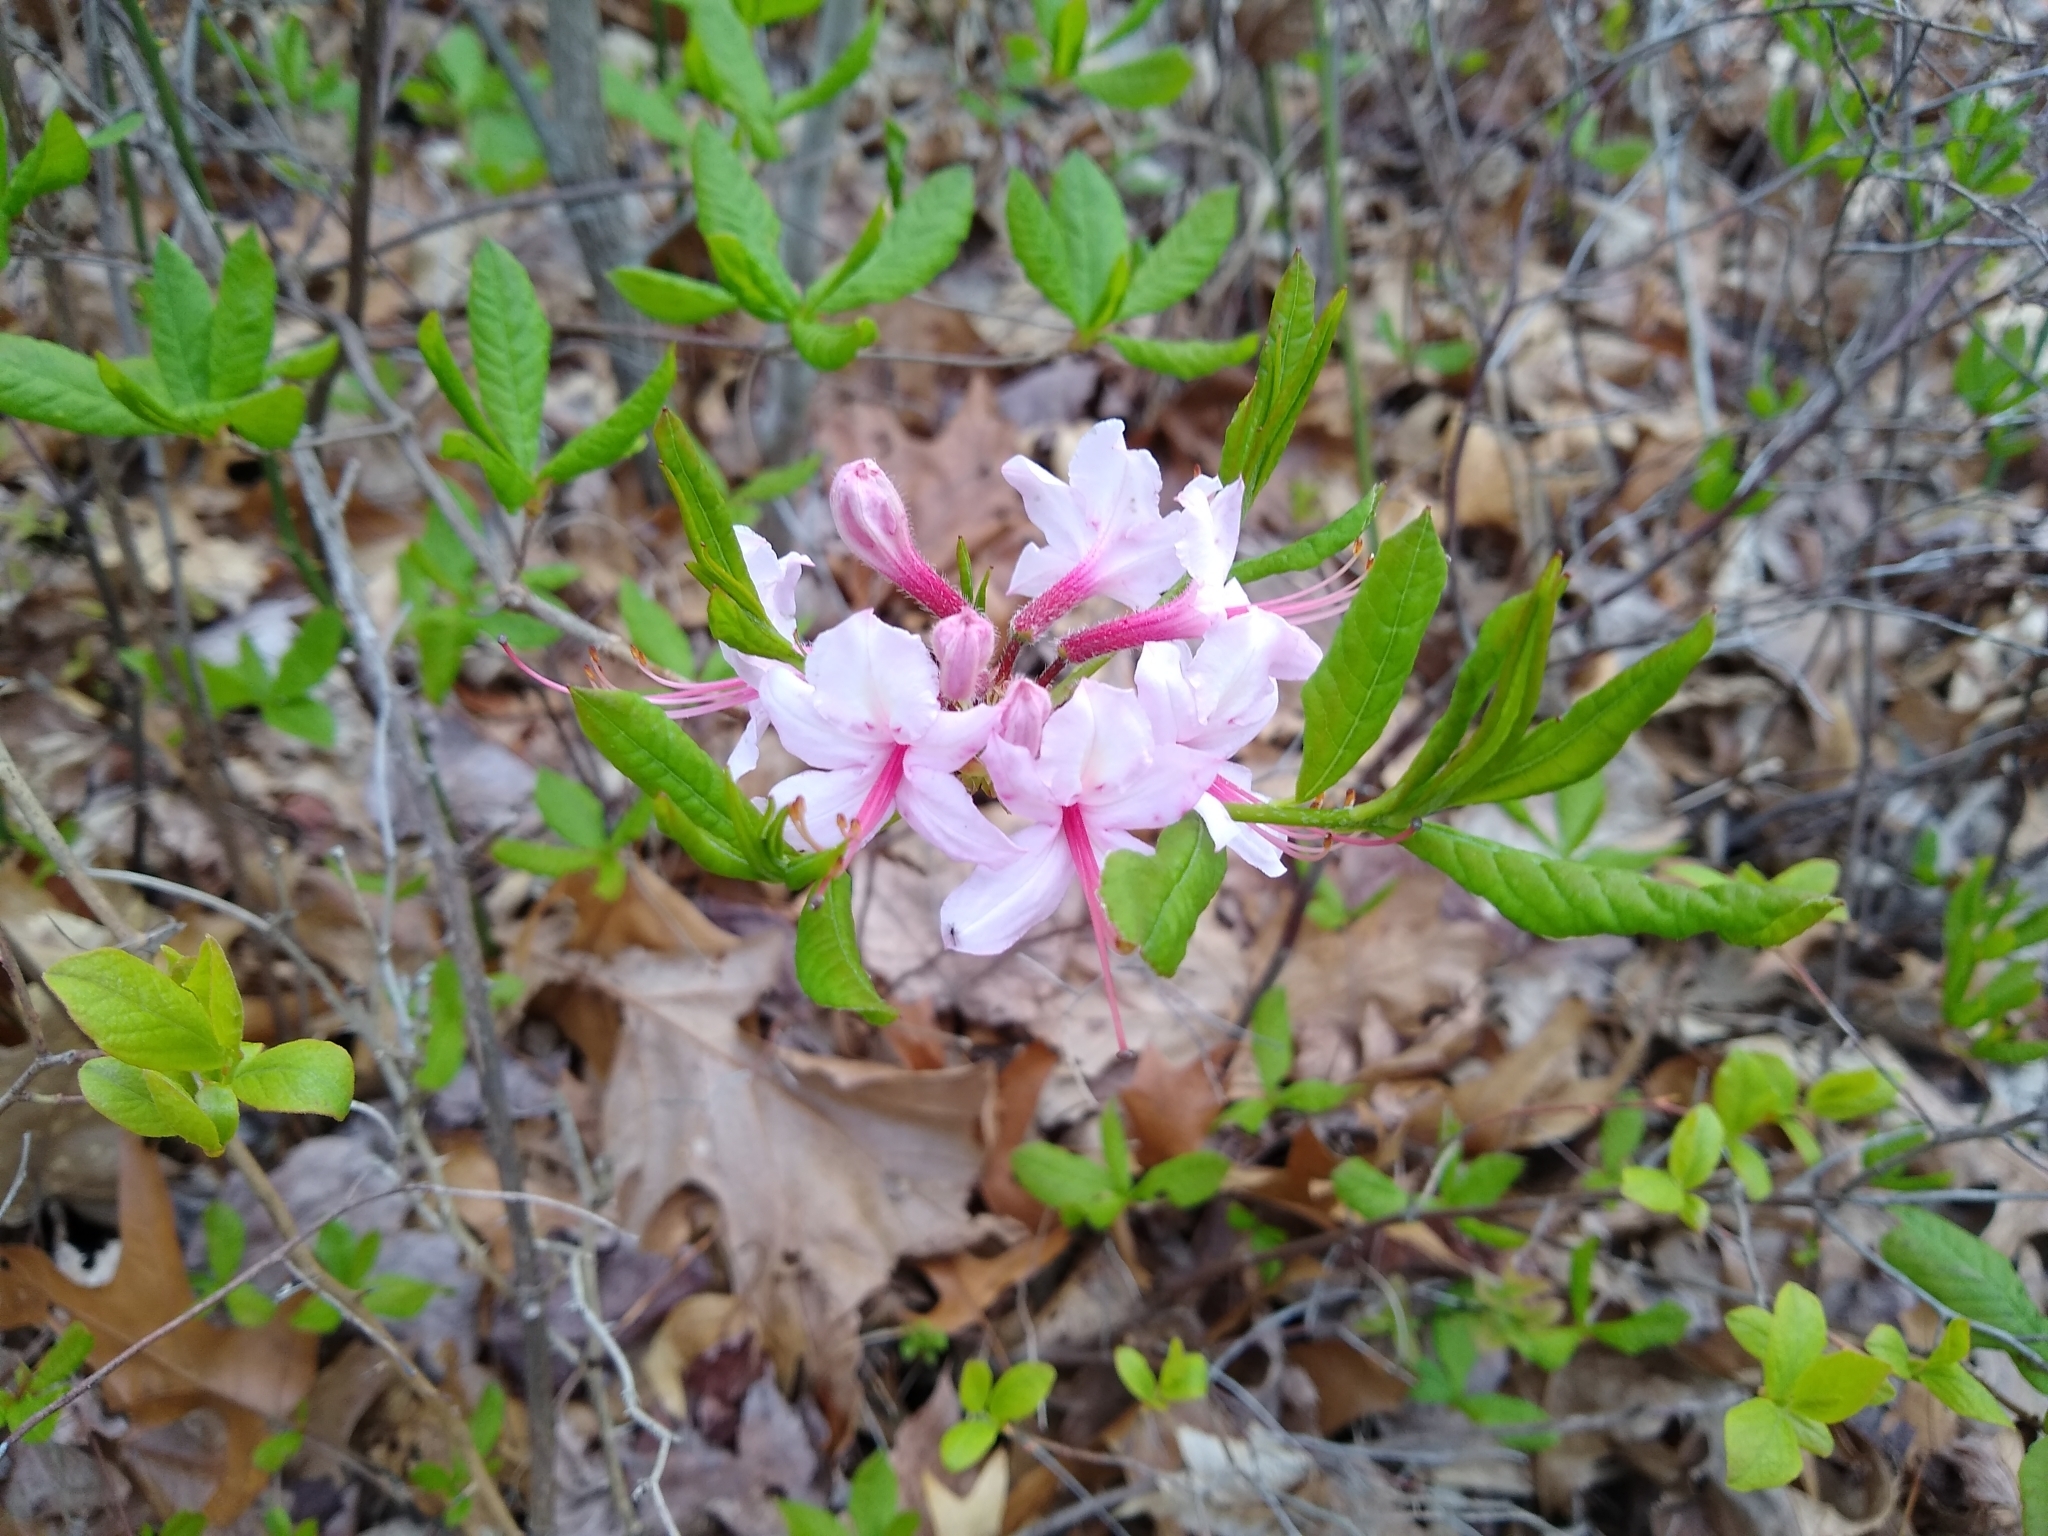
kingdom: Plantae
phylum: Tracheophyta
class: Magnoliopsida
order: Ericales
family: Ericaceae
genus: Rhododendron
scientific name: Rhododendron periclymenoides
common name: Election-pink
